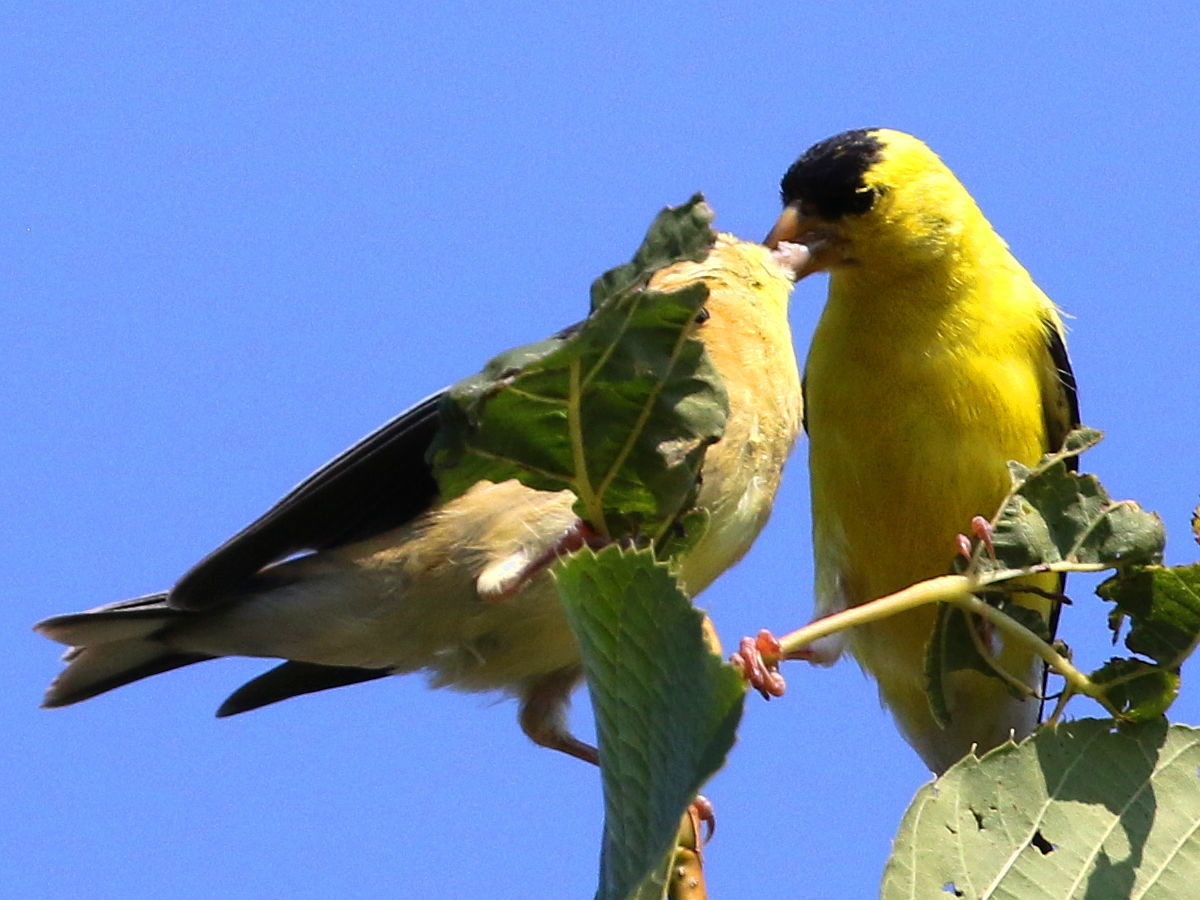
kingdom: Animalia
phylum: Chordata
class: Aves
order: Passeriformes
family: Fringillidae
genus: Spinus
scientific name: Spinus tristis
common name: American goldfinch
